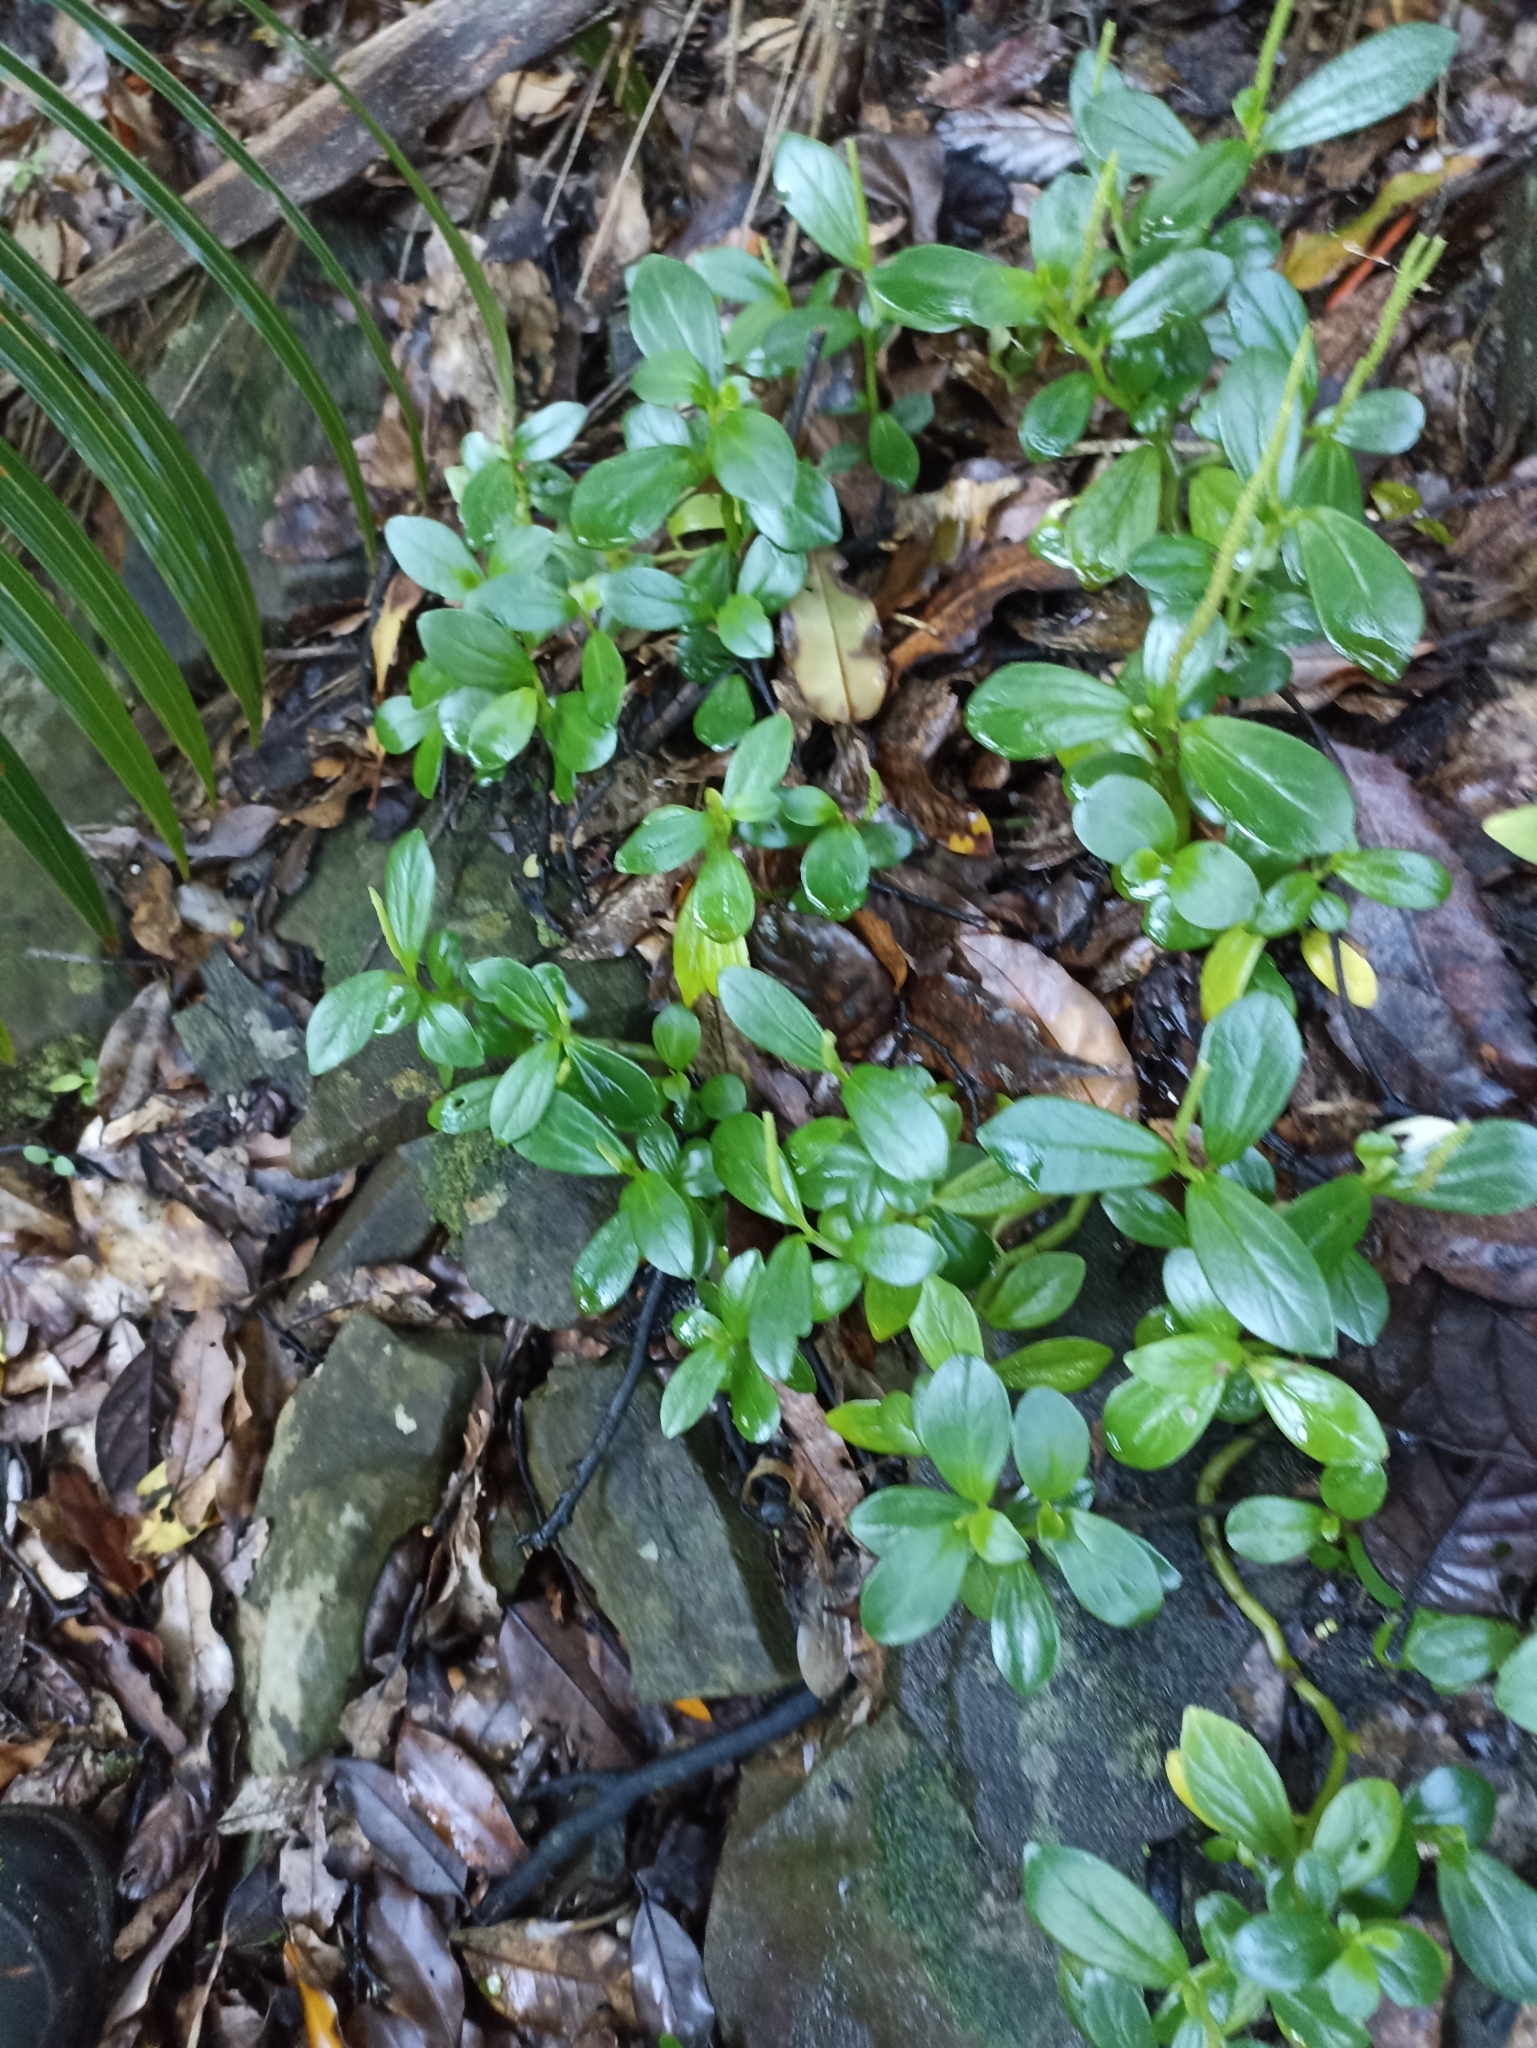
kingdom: Plantae
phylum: Tracheophyta
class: Magnoliopsida
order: Piperales
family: Piperaceae
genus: Peperomia
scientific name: Peperomia urvilleana
